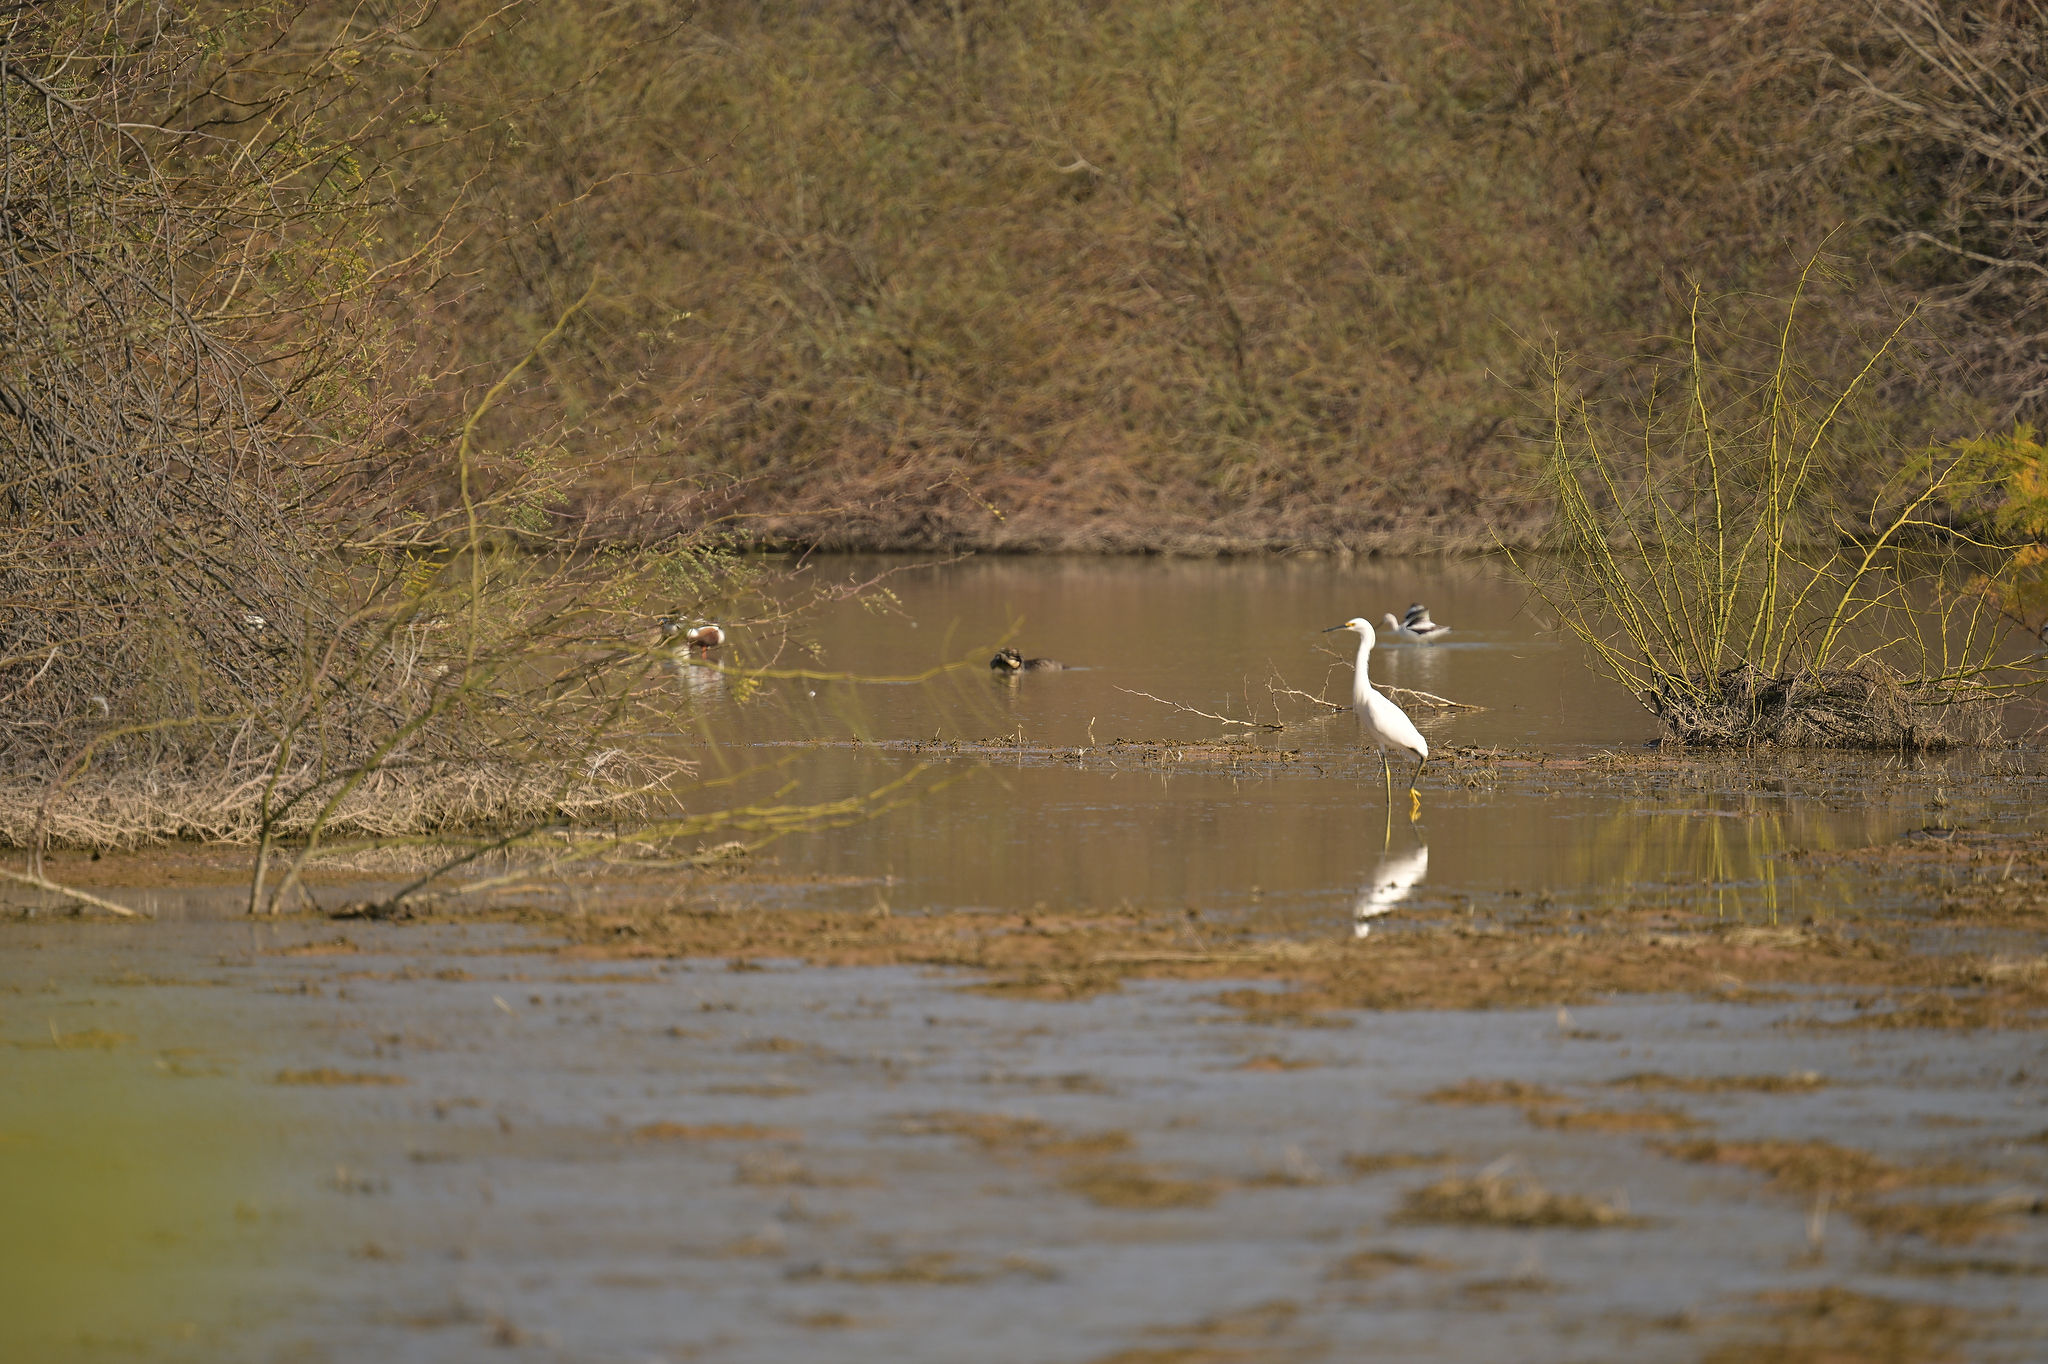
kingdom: Animalia
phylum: Chordata
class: Aves
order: Pelecaniformes
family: Ardeidae
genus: Egretta
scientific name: Egretta thula
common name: Snowy egret
